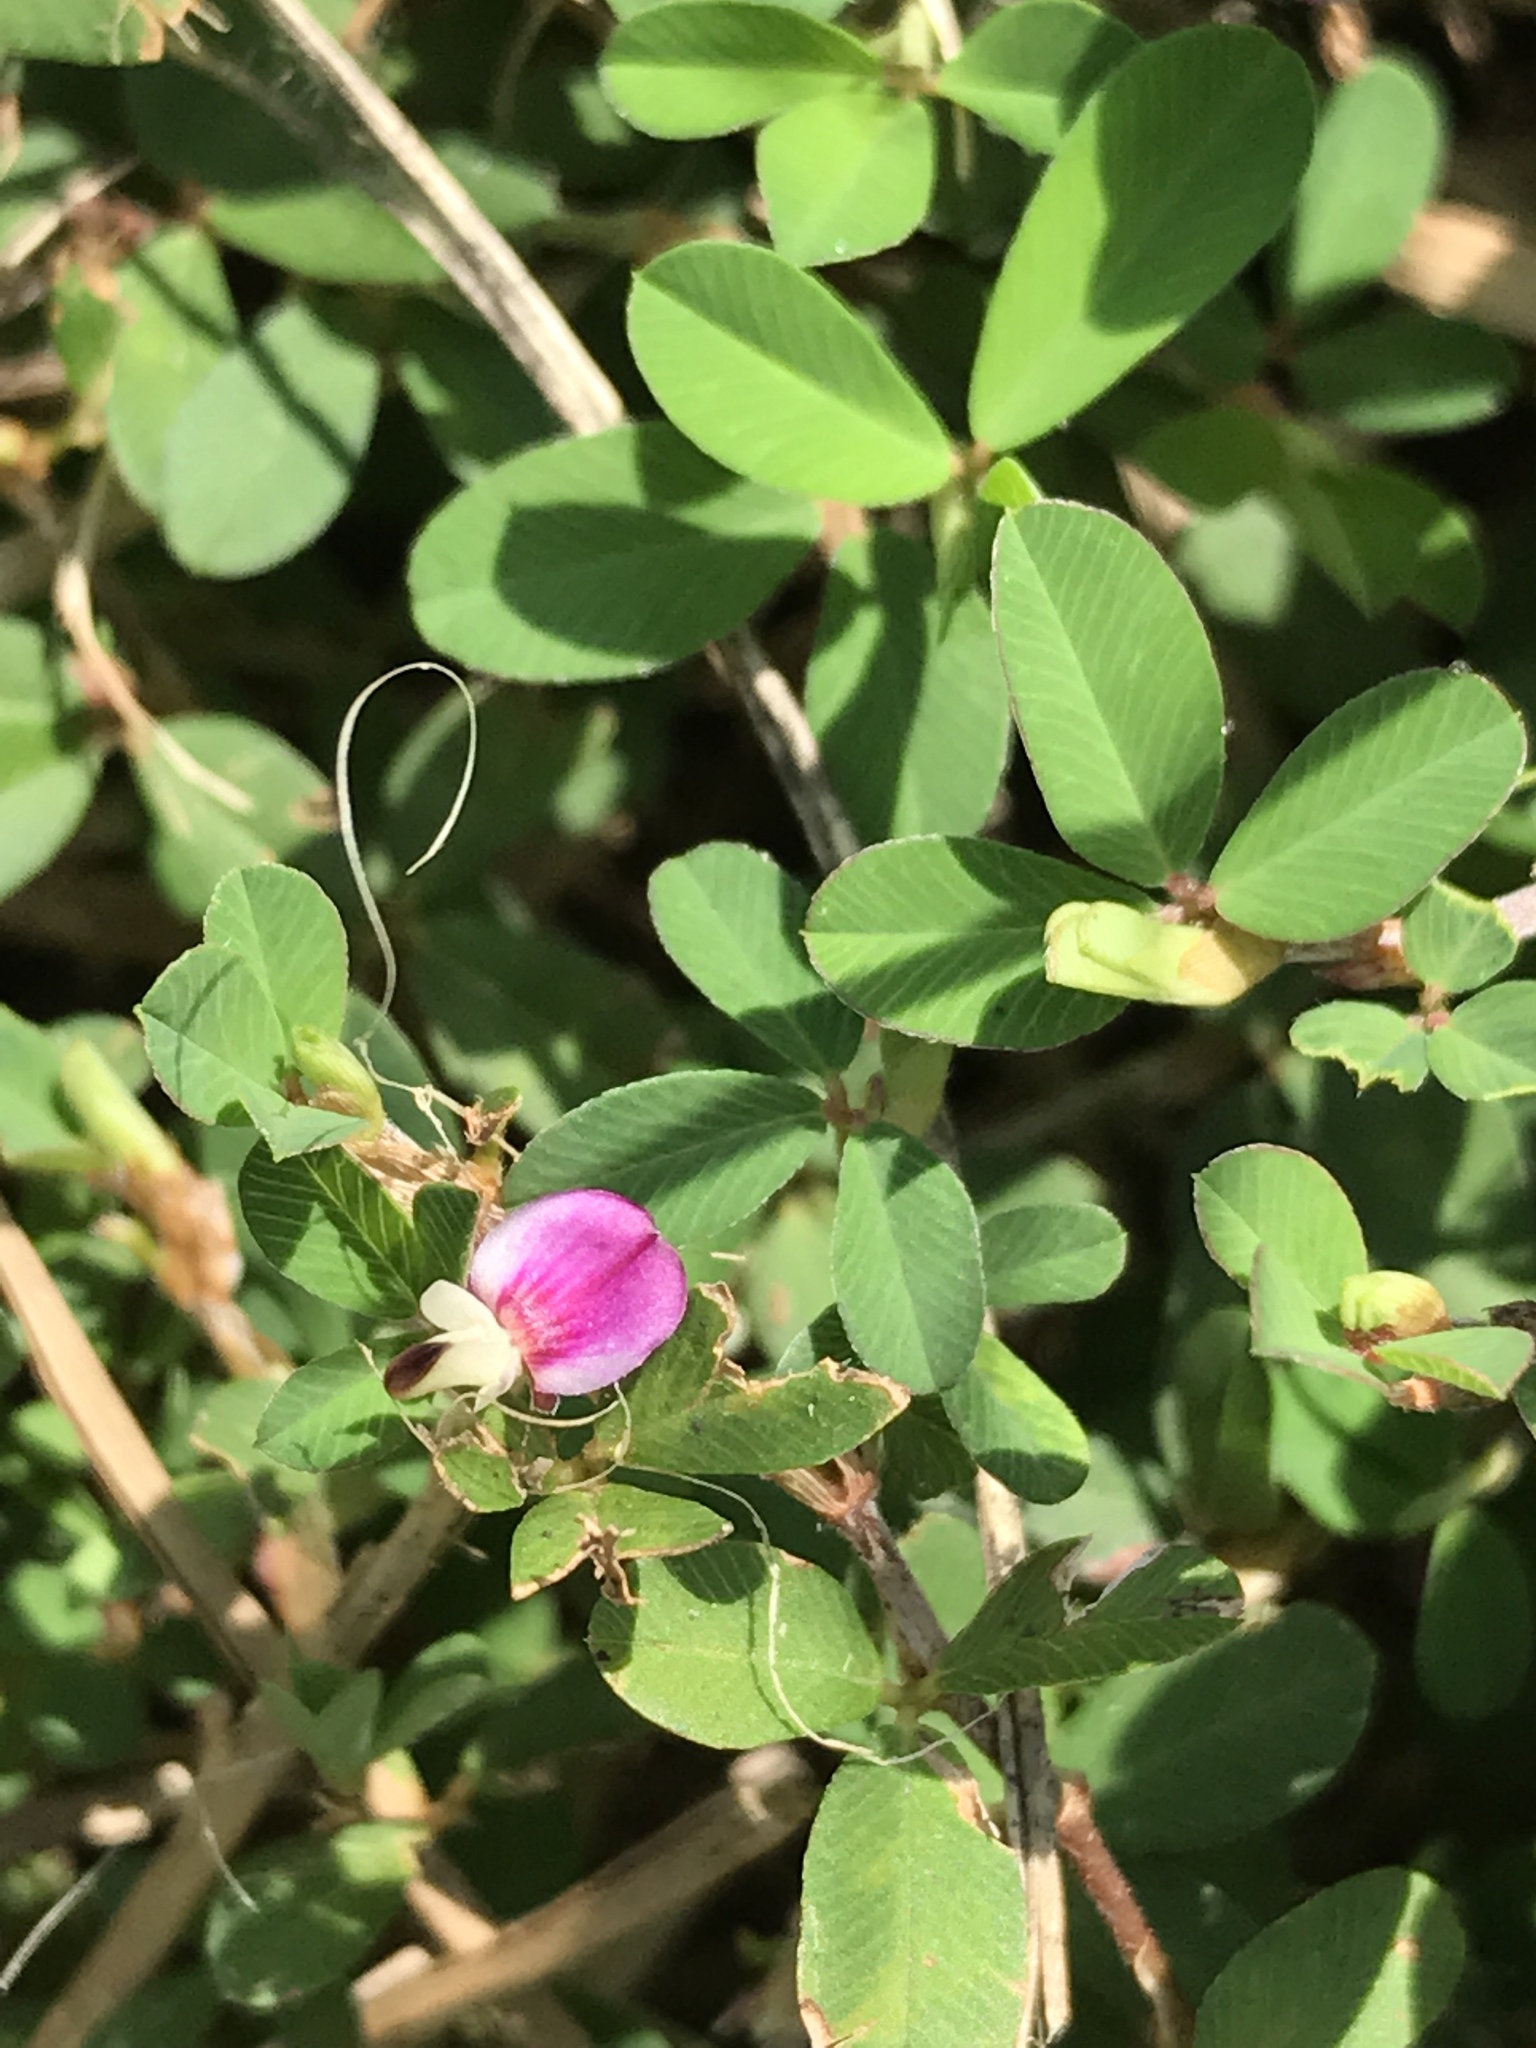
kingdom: Plantae
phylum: Tracheophyta
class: Magnoliopsida
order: Fabales
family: Fabaceae
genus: Kummerowia
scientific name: Kummerowia striata
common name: Japanese clover
